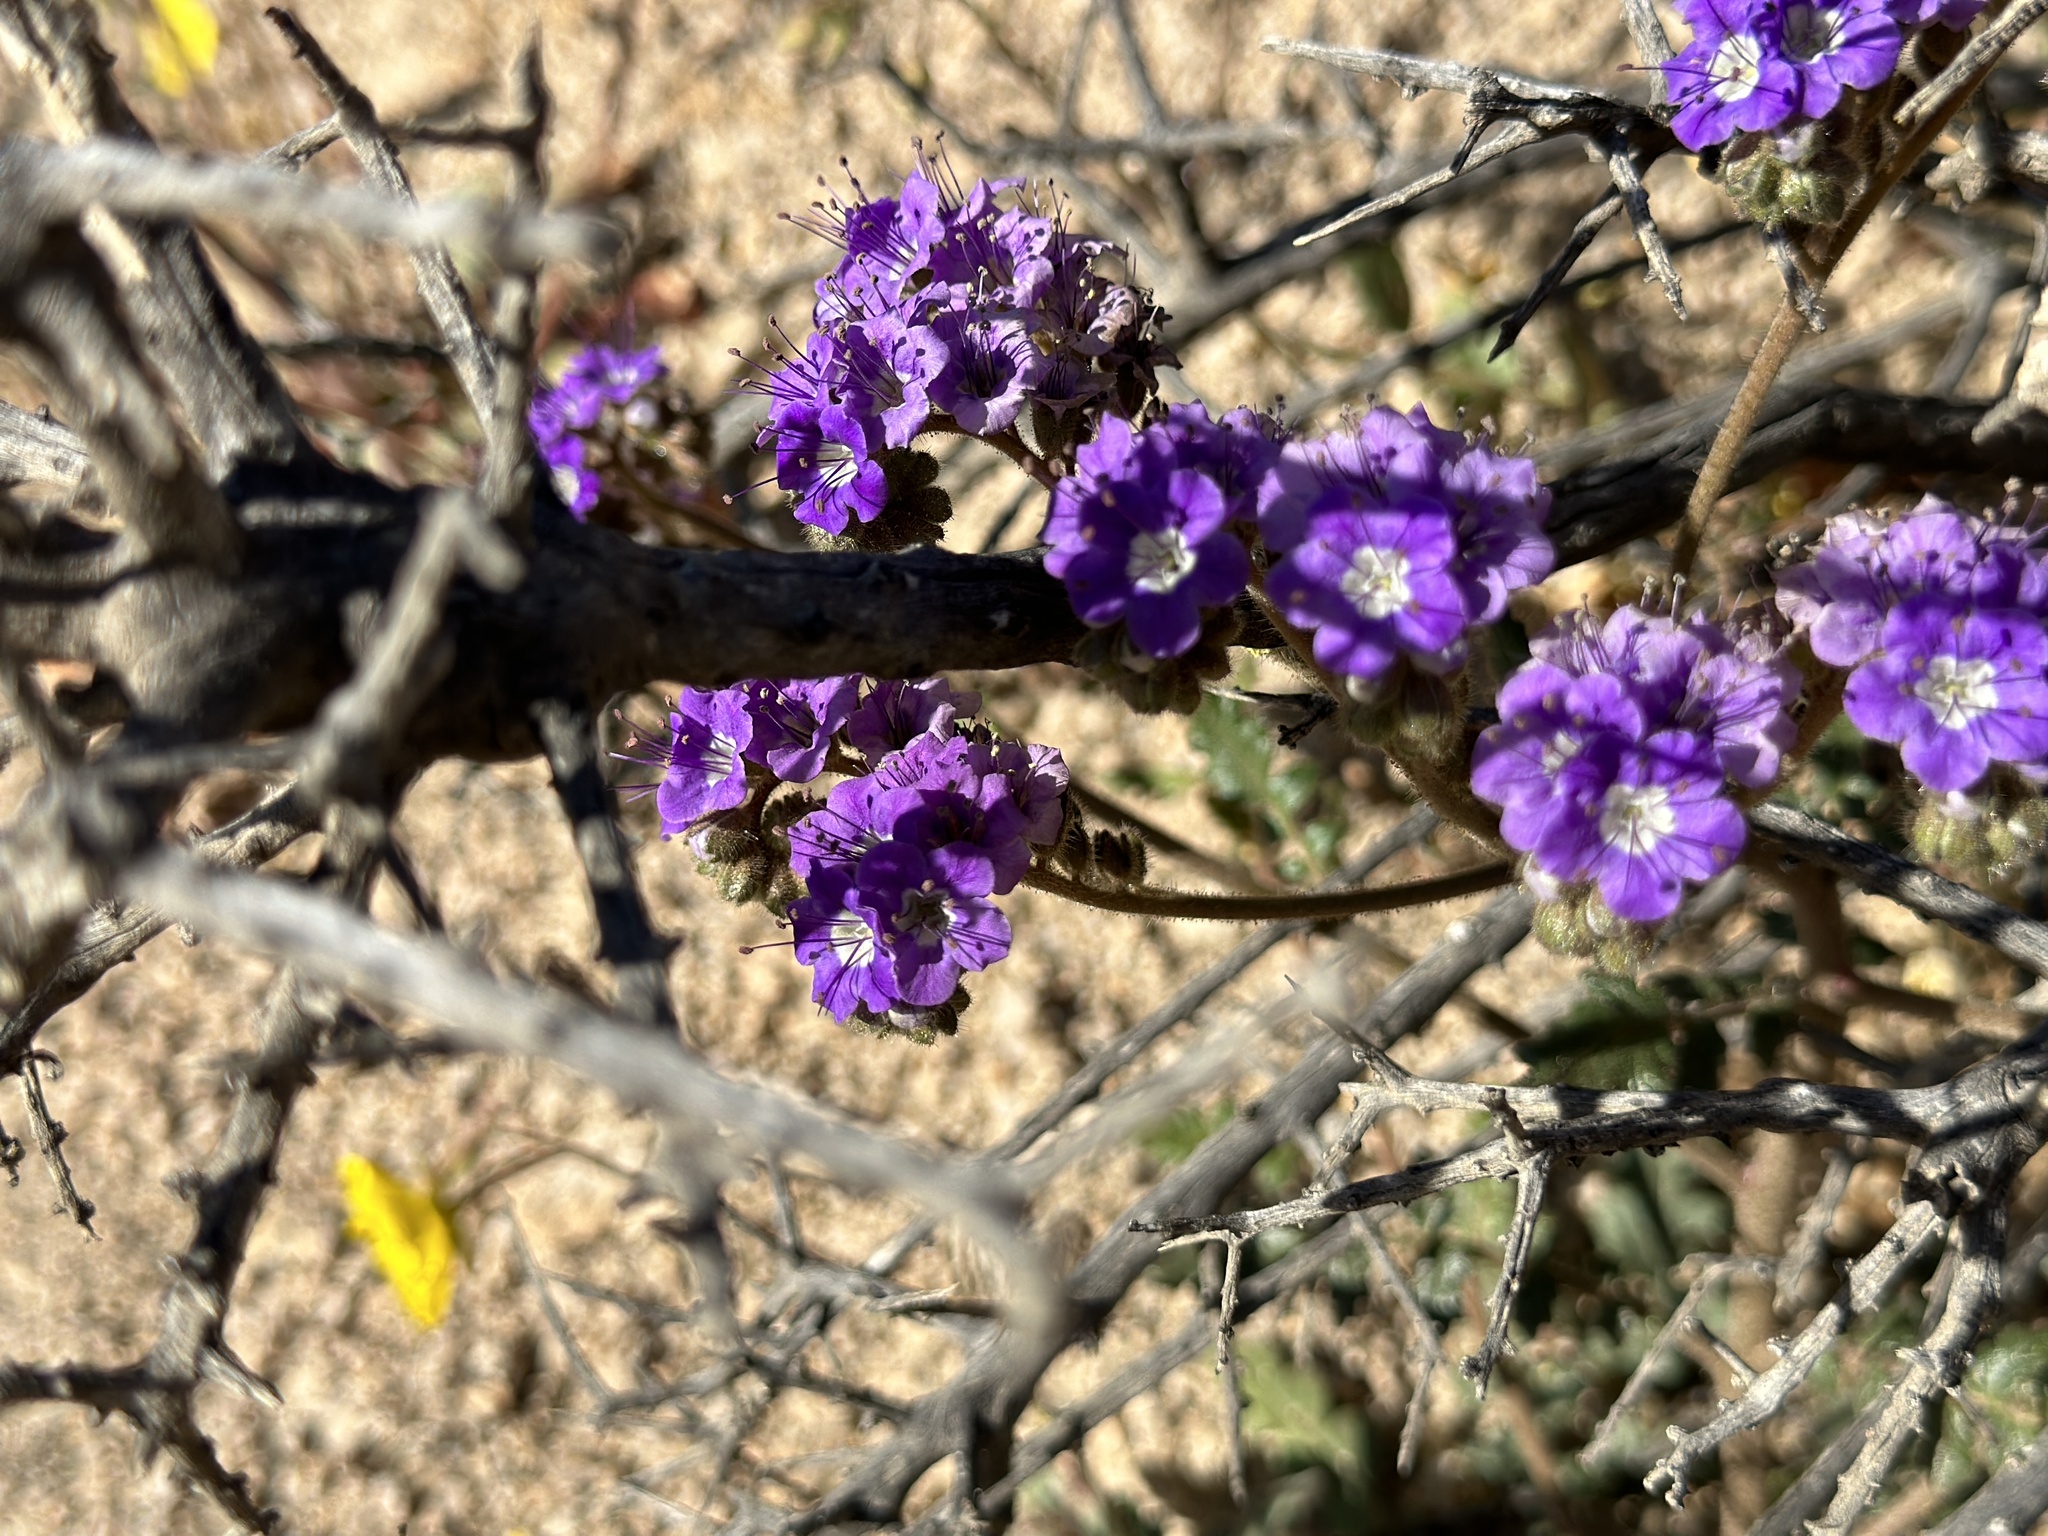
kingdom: Plantae
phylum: Tracheophyta
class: Magnoliopsida
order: Boraginales
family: Hydrophyllaceae
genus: Phacelia
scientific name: Phacelia crenulata
